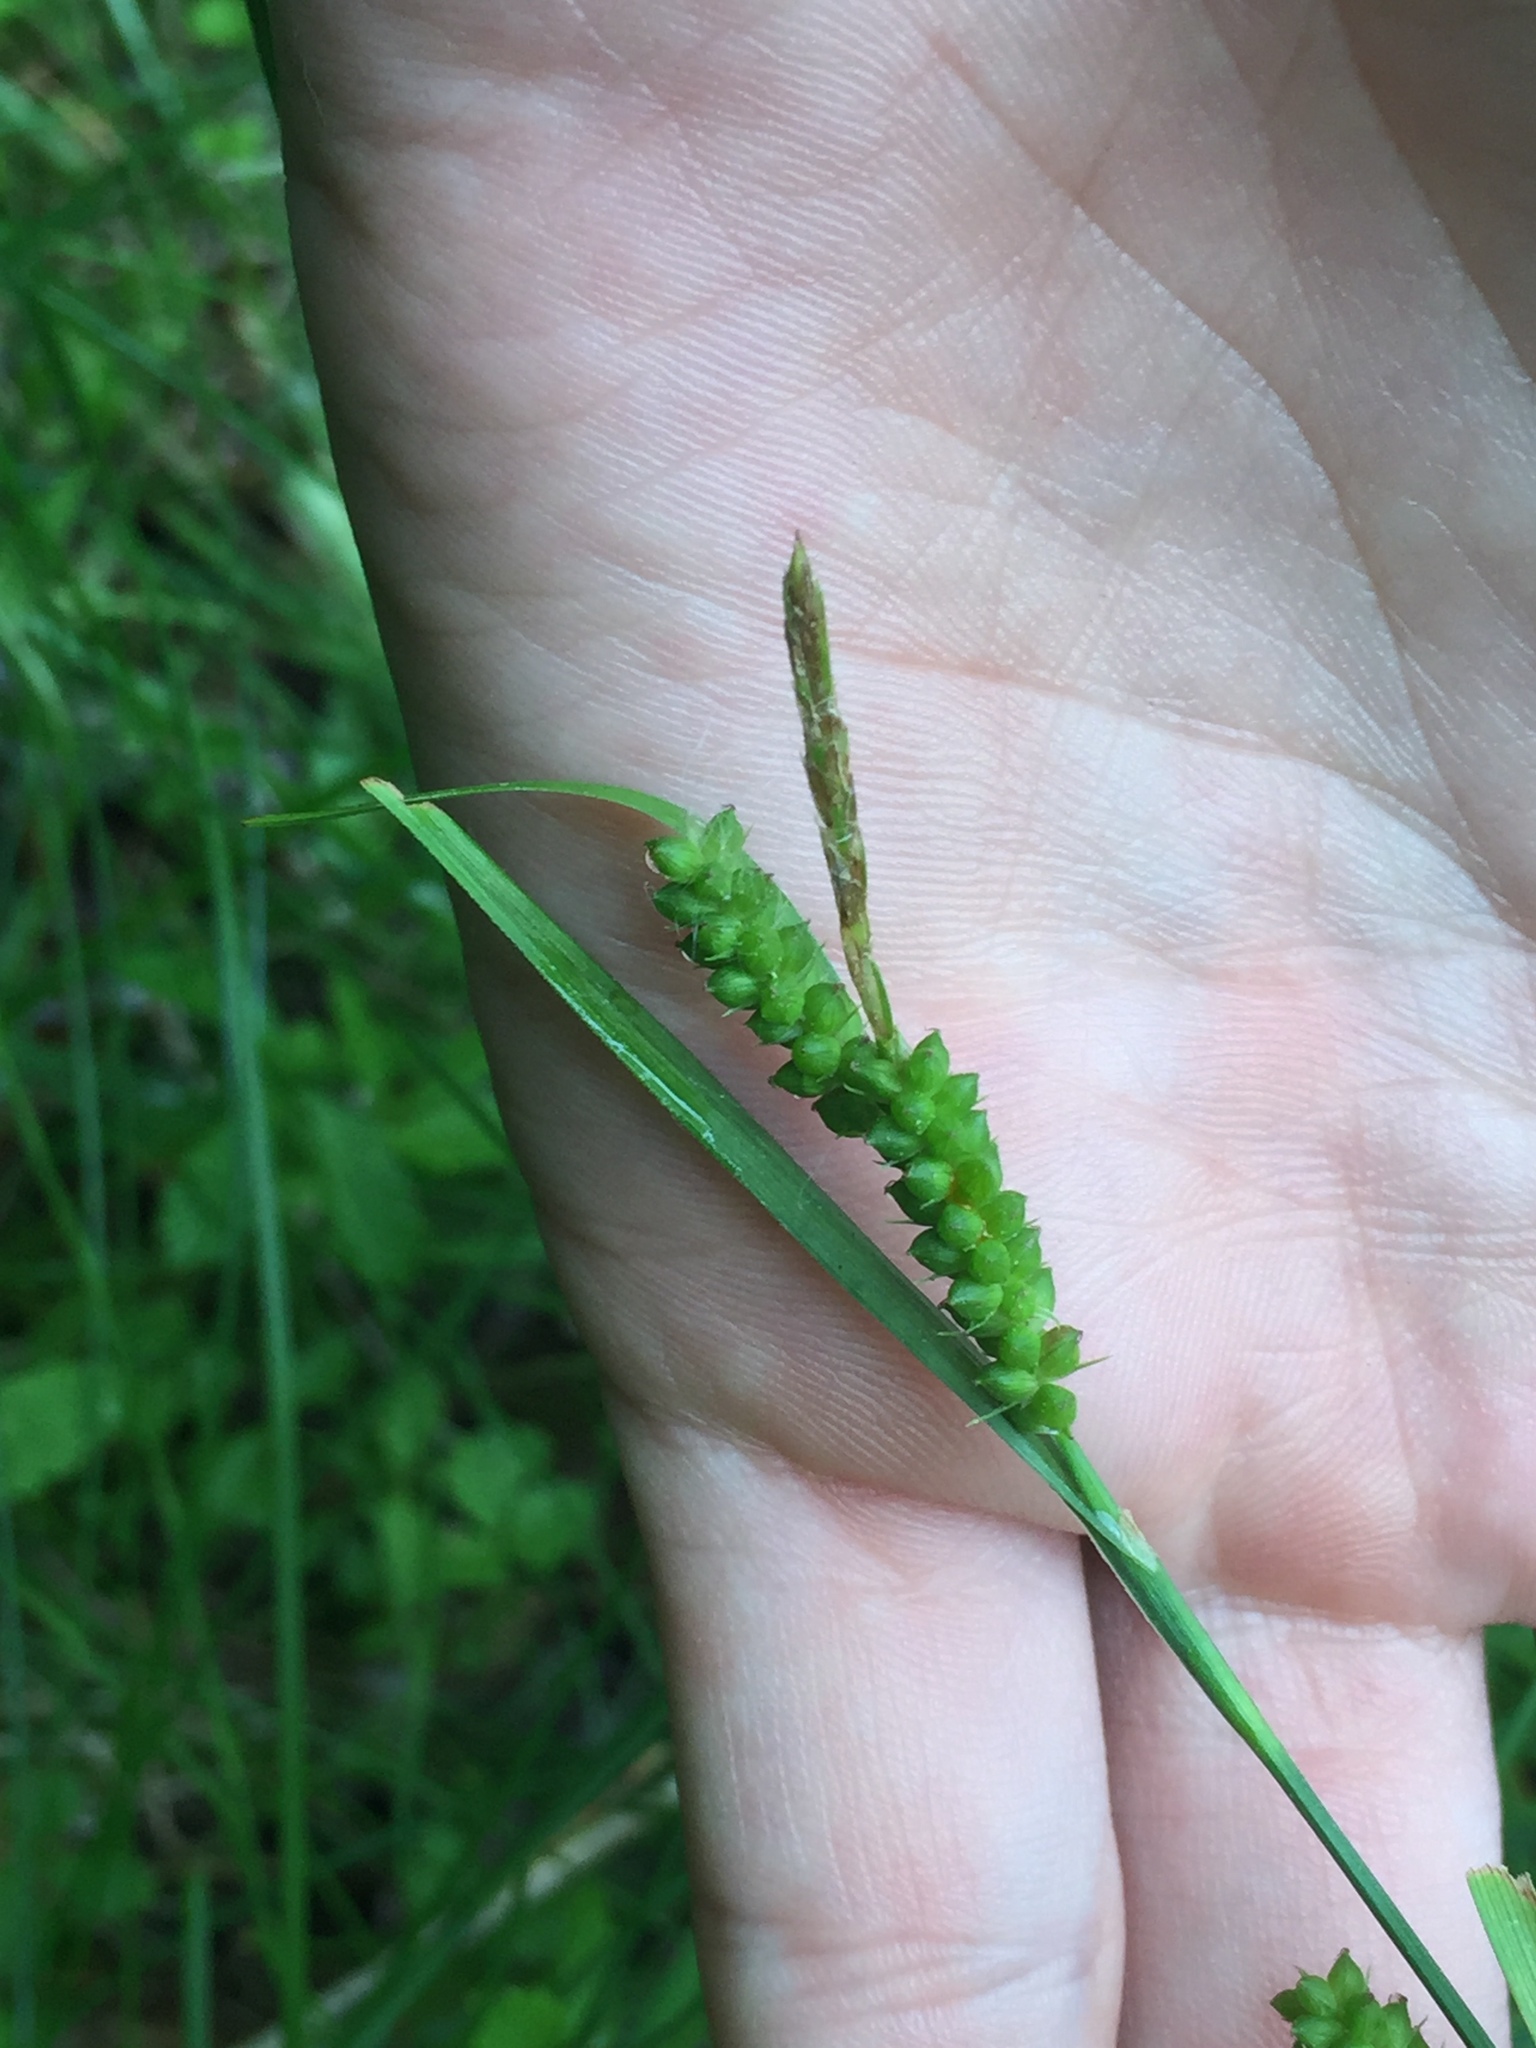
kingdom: Plantae
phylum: Tracheophyta
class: Liliopsida
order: Poales
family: Cyperaceae
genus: Carex
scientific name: Carex granularis
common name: Granular sedge
